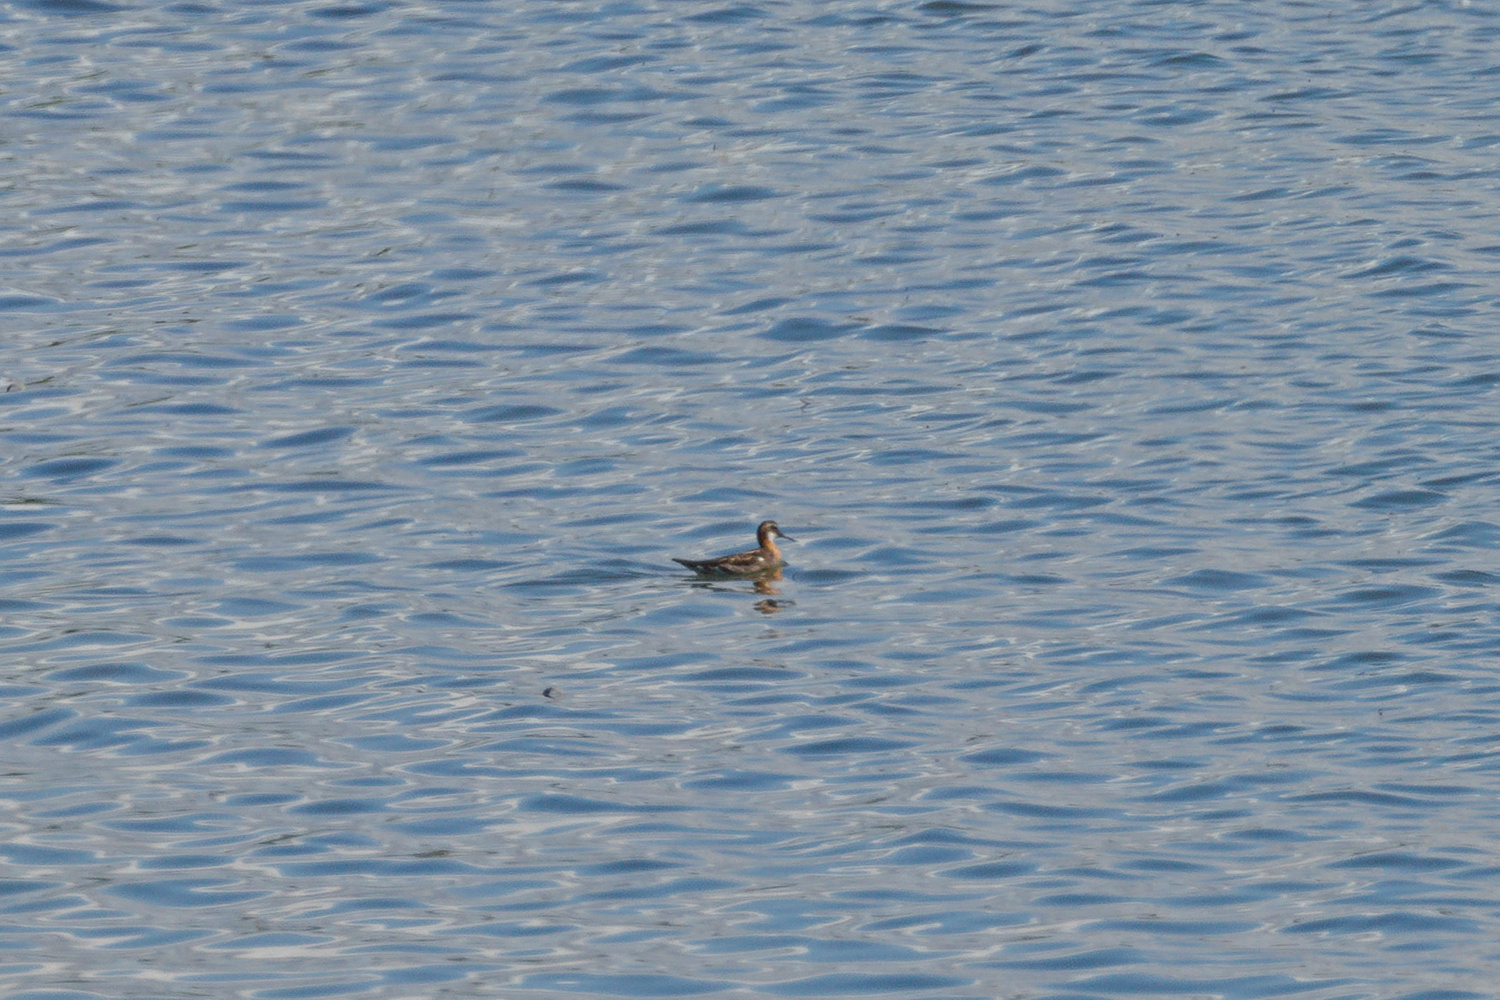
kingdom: Animalia
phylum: Chordata
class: Aves
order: Charadriiformes
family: Scolopacidae
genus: Phalaropus
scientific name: Phalaropus lobatus
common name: Red-necked phalarope
